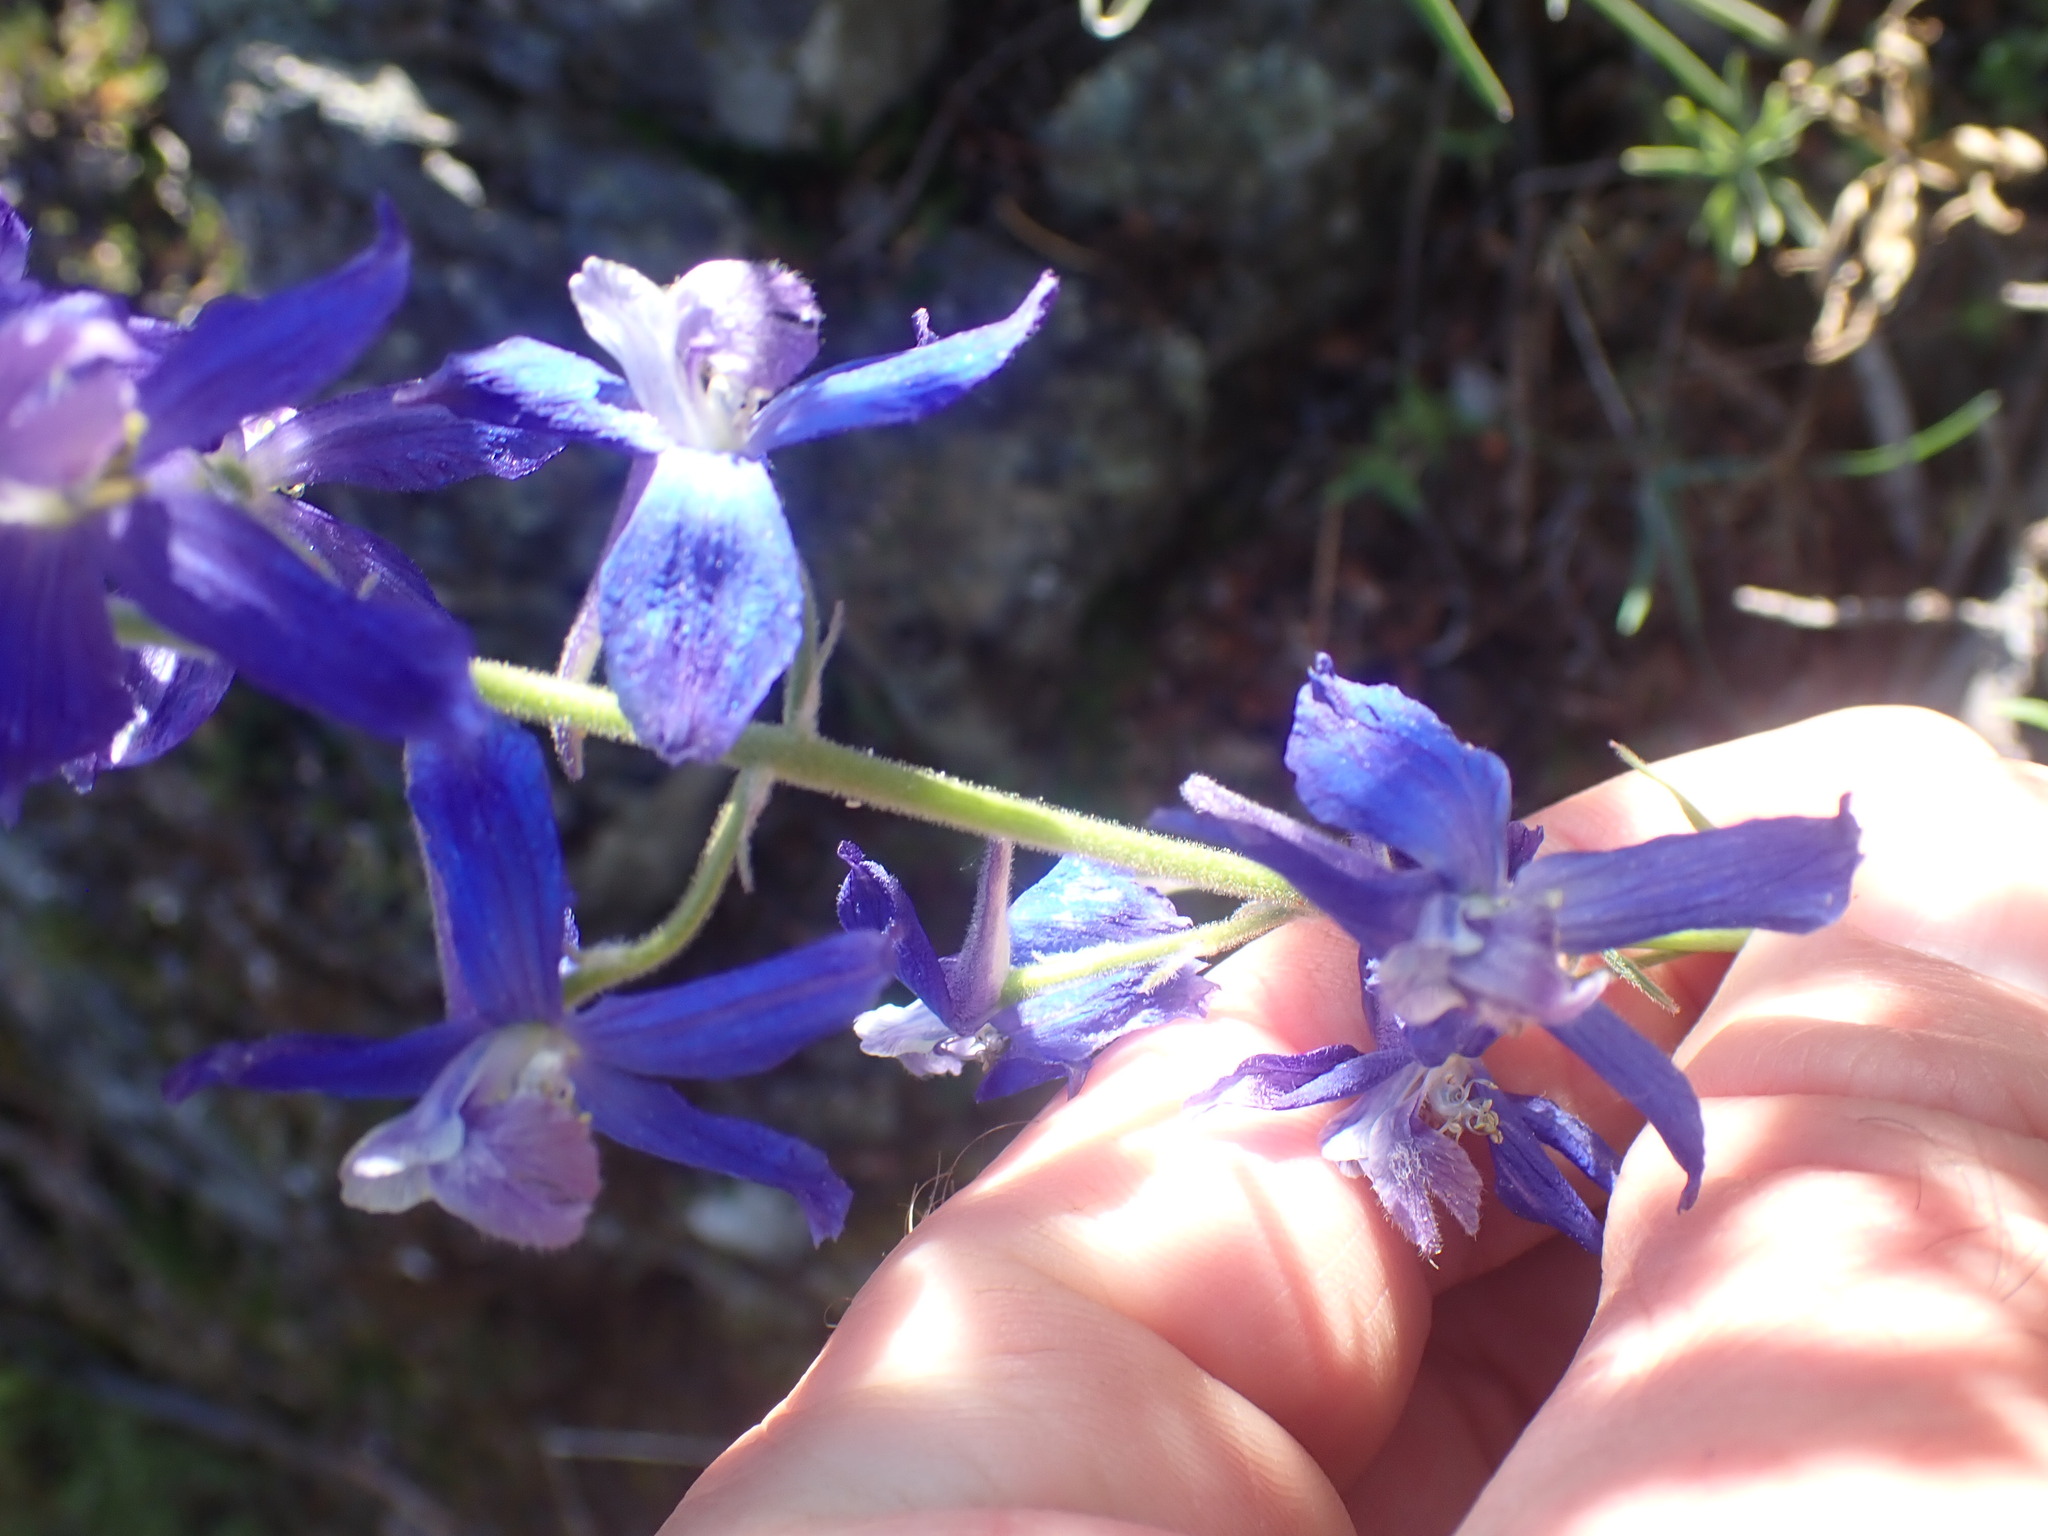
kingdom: Plantae
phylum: Tracheophyta
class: Magnoliopsida
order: Ranunculales
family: Ranunculaceae
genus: Delphinium
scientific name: Delphinium nuttallianum
